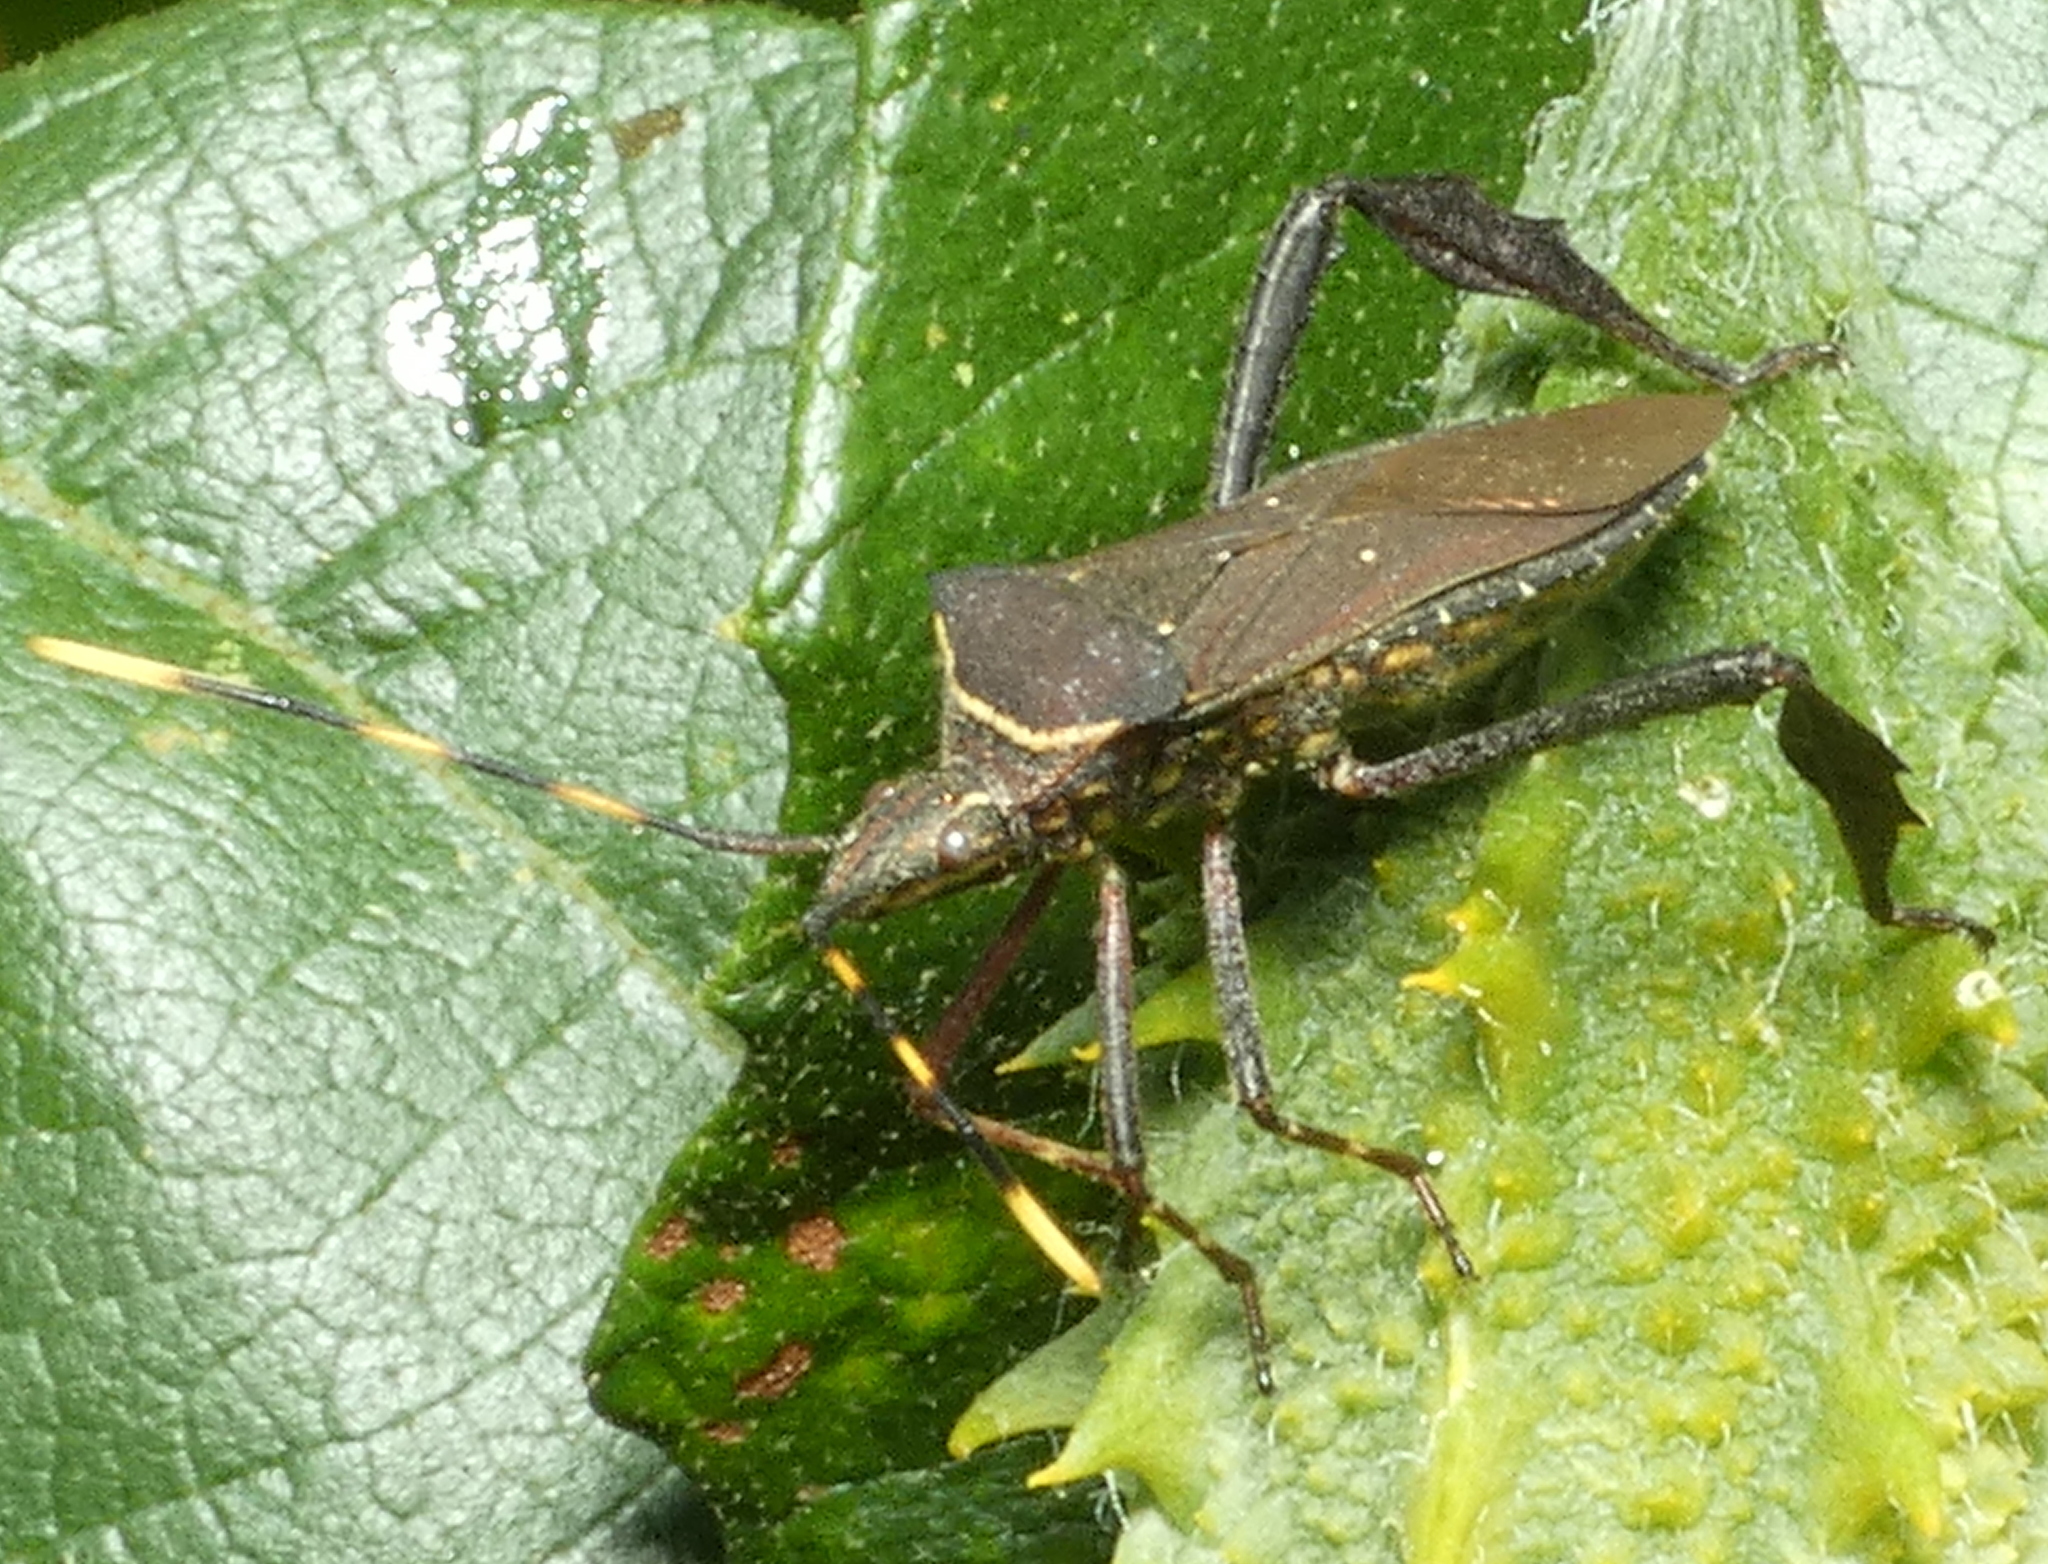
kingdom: Animalia
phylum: Arthropoda
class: Insecta
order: Hemiptera
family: Coreidae
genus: Leptoglossus
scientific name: Leptoglossus gonagra
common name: Citron bug
